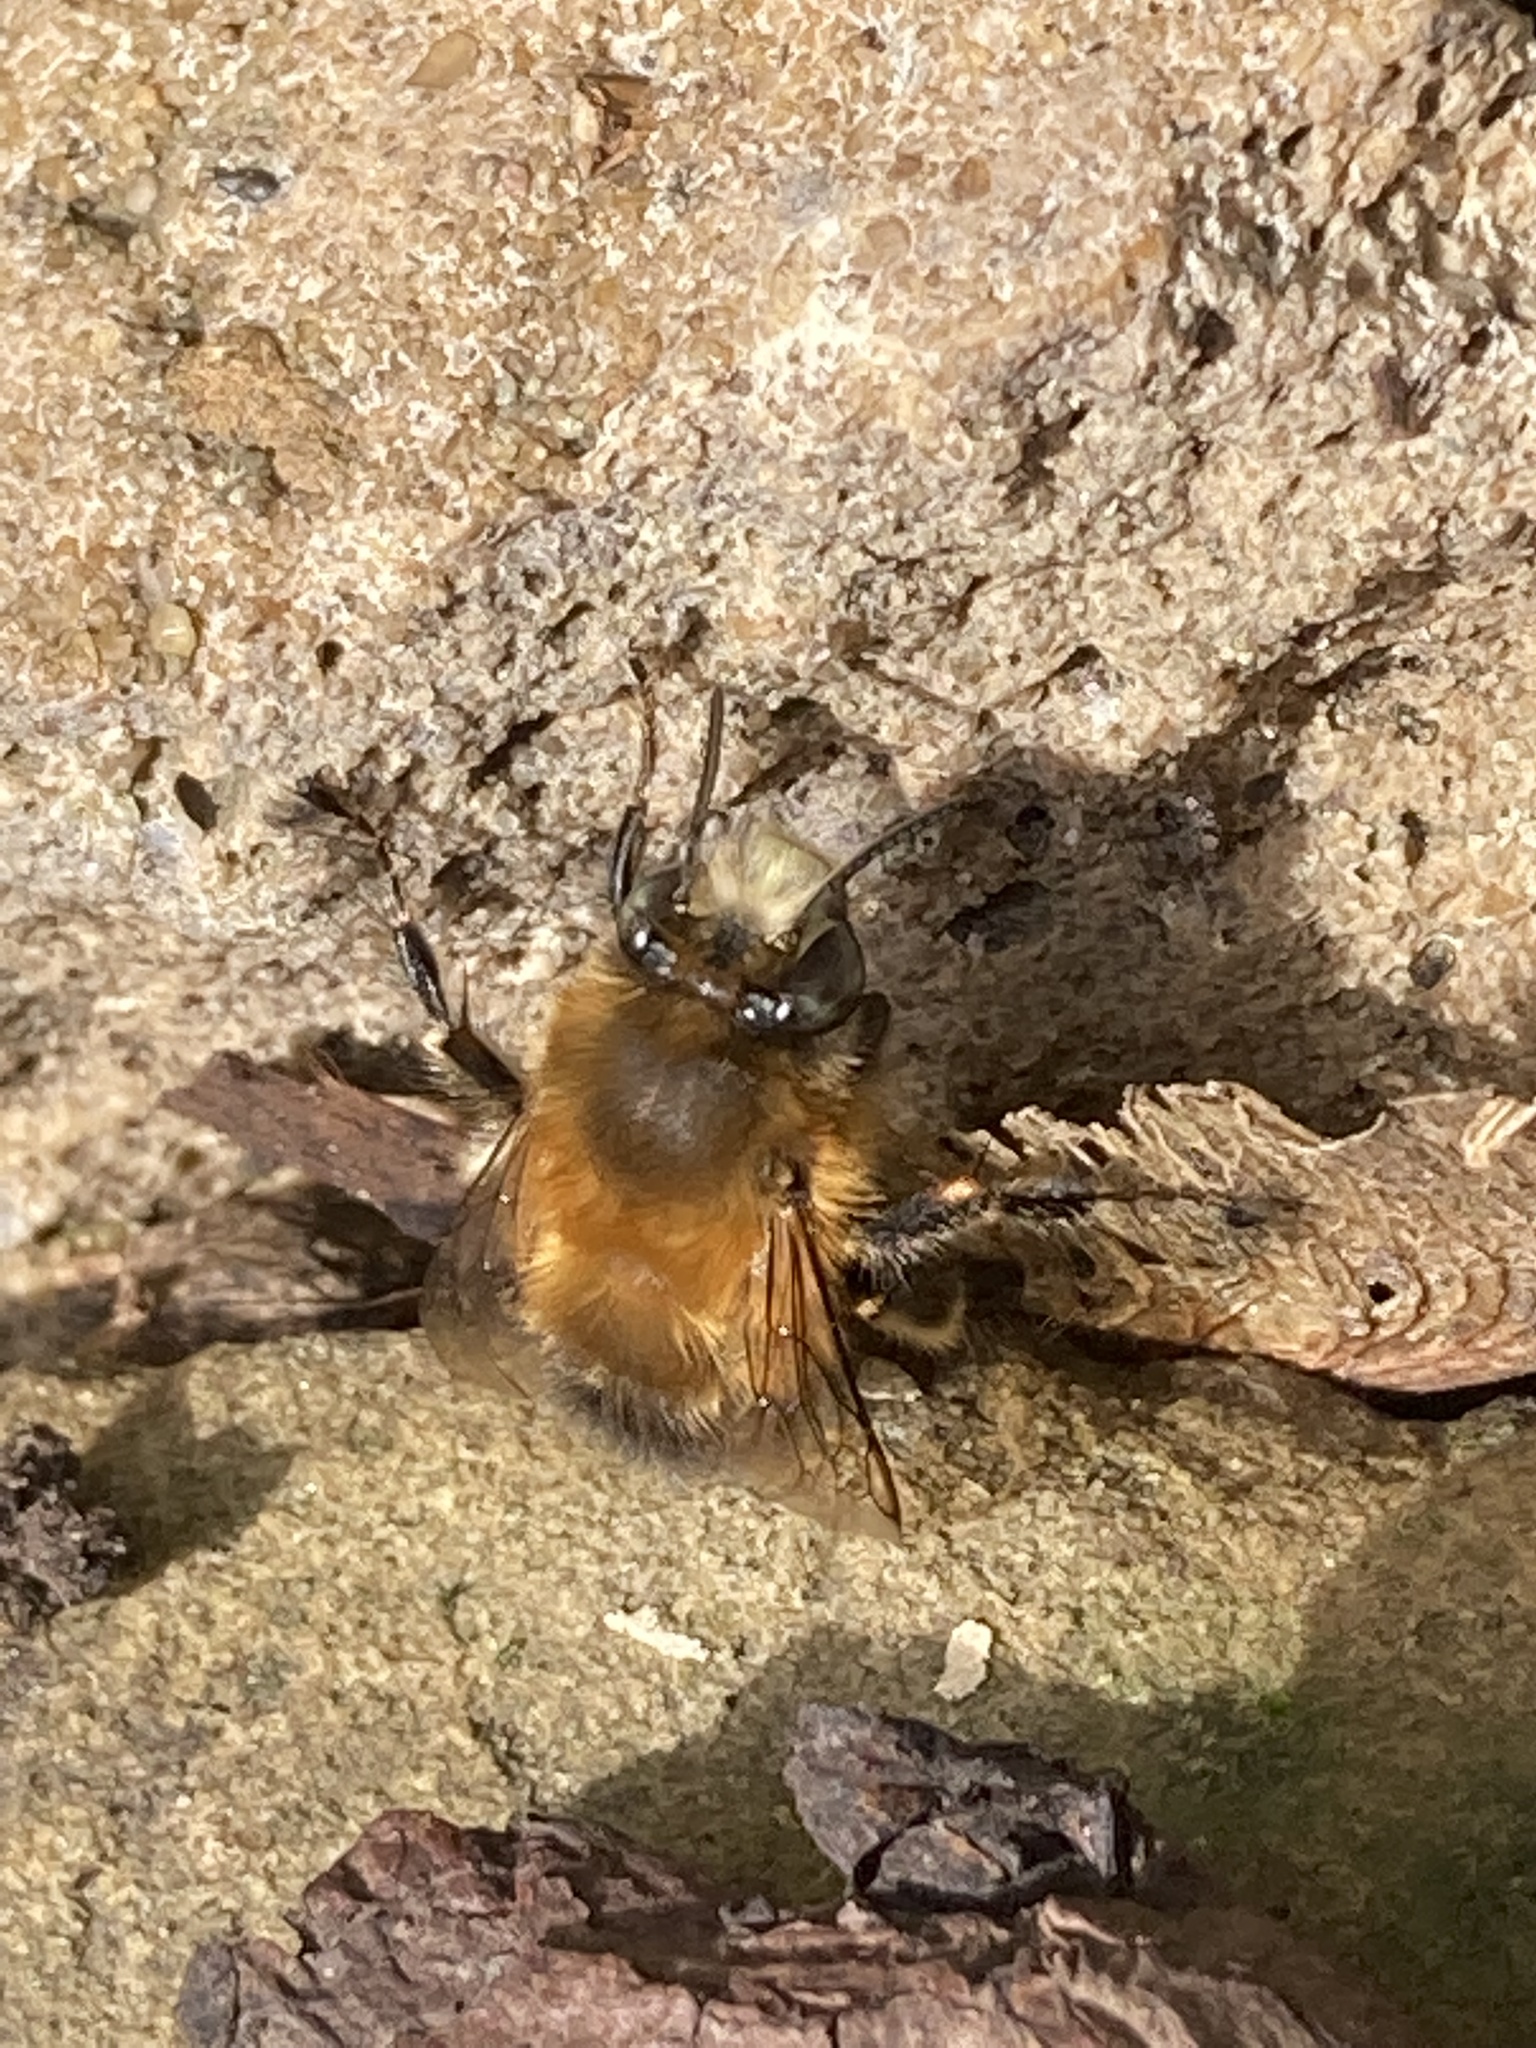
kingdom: Animalia
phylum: Arthropoda
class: Insecta
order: Hymenoptera
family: Apidae
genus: Anthophora
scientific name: Anthophora plumipes
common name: Hairy-footed flower bee
